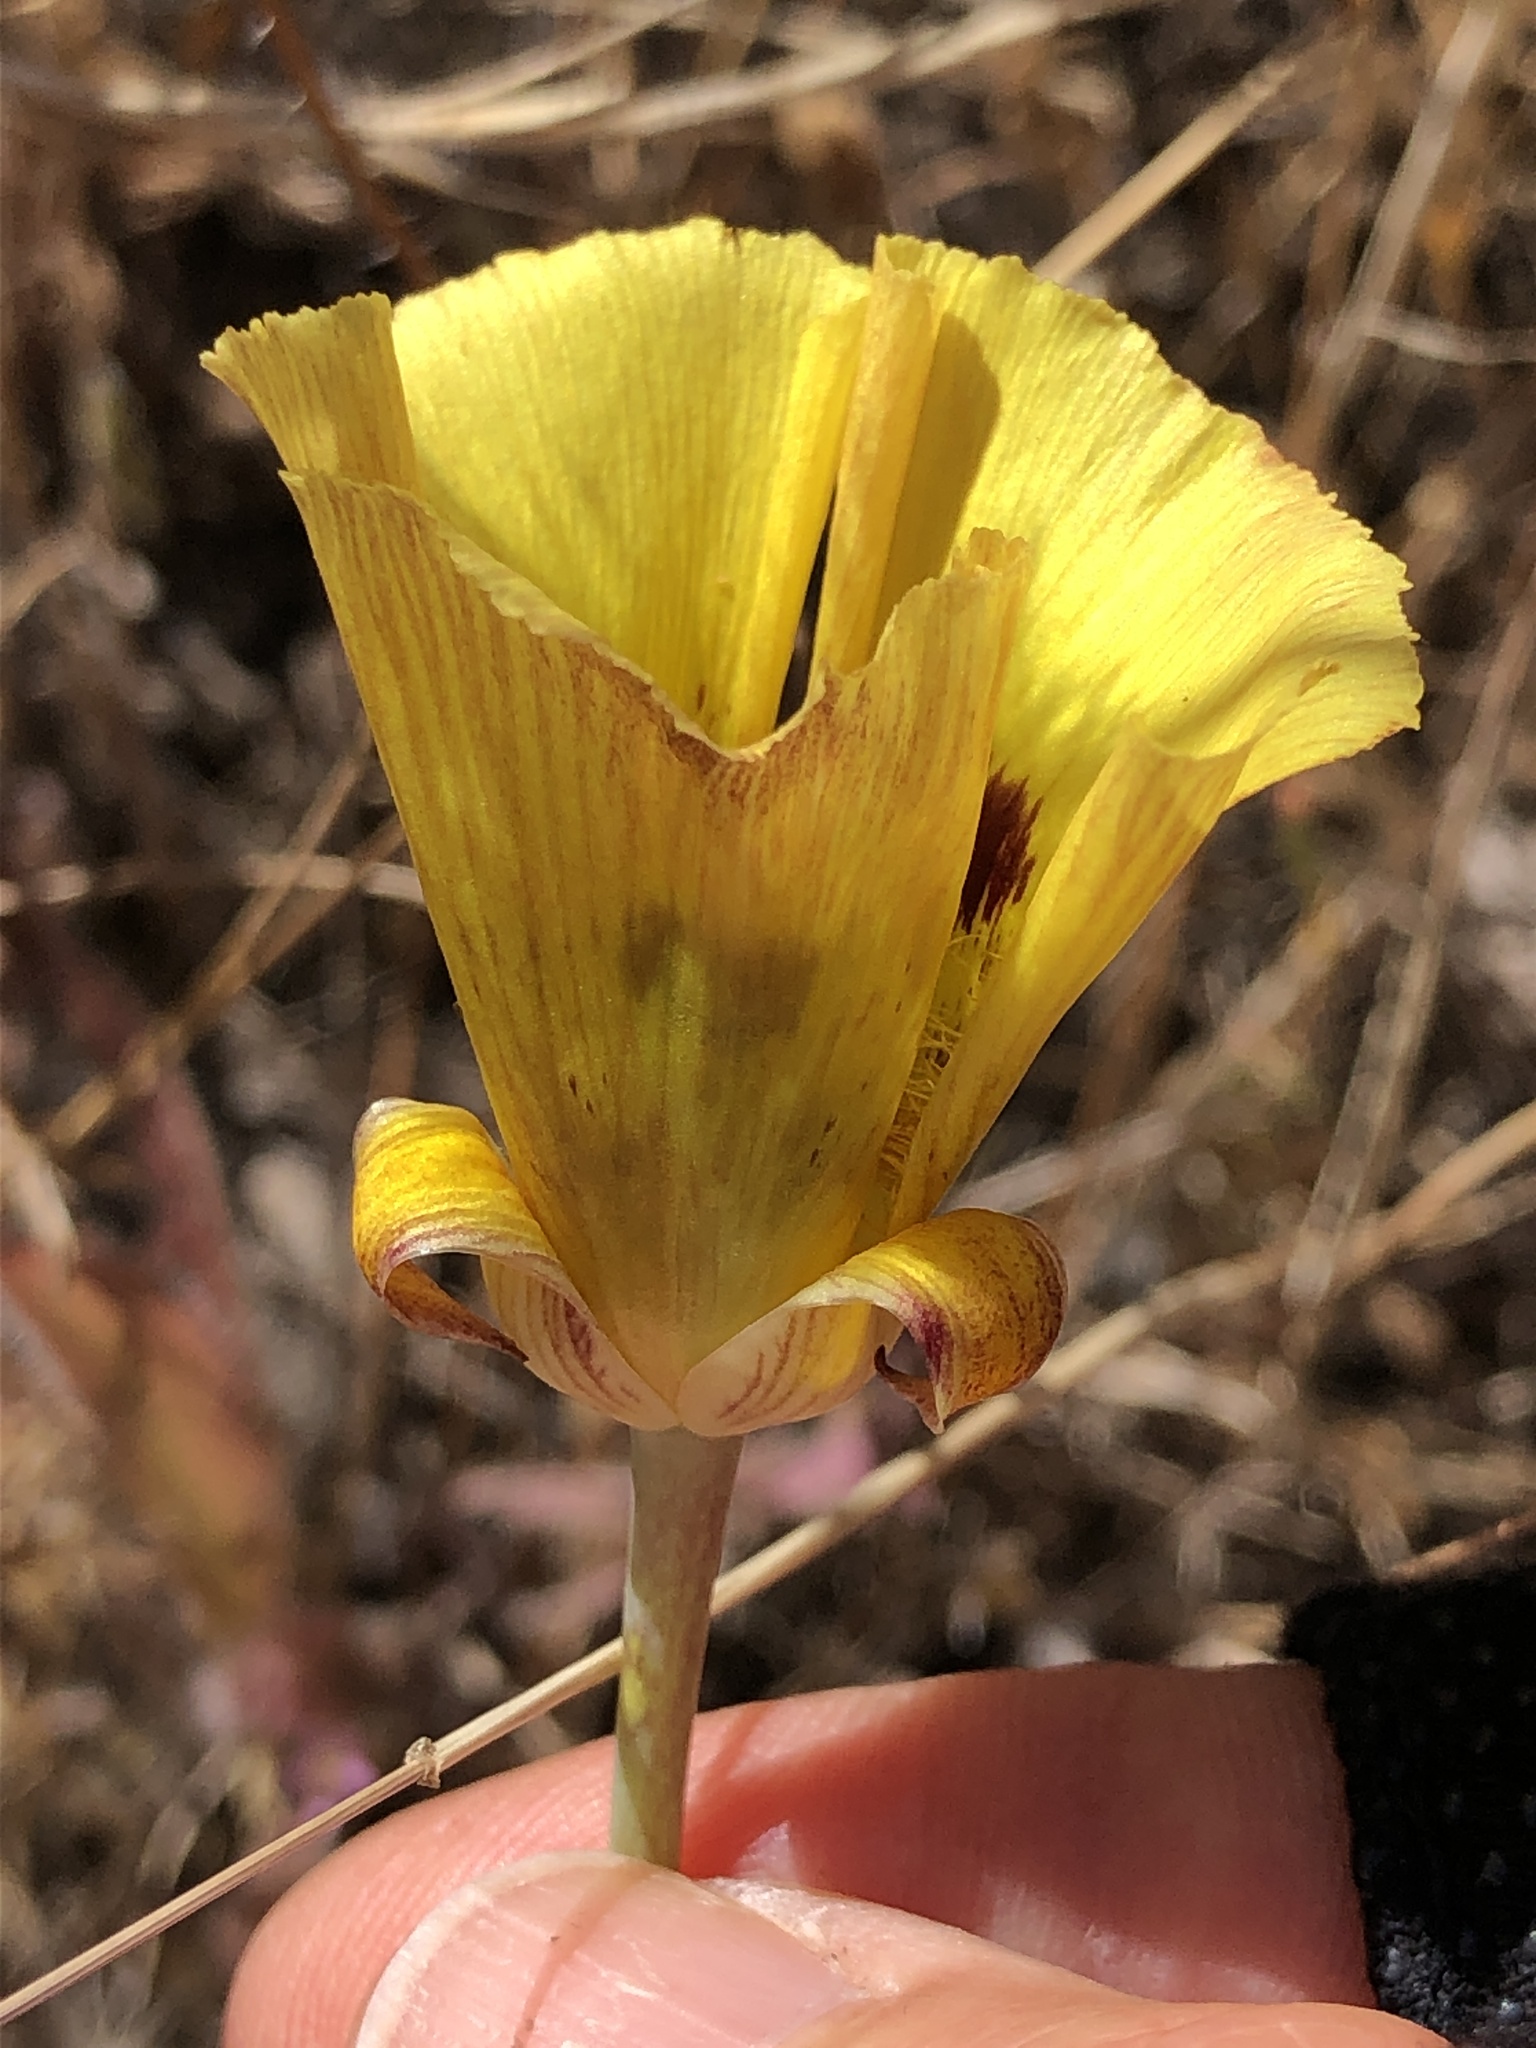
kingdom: Plantae
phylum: Tracheophyta
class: Liliopsida
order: Liliales
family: Liliaceae
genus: Calochortus
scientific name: Calochortus luteus
